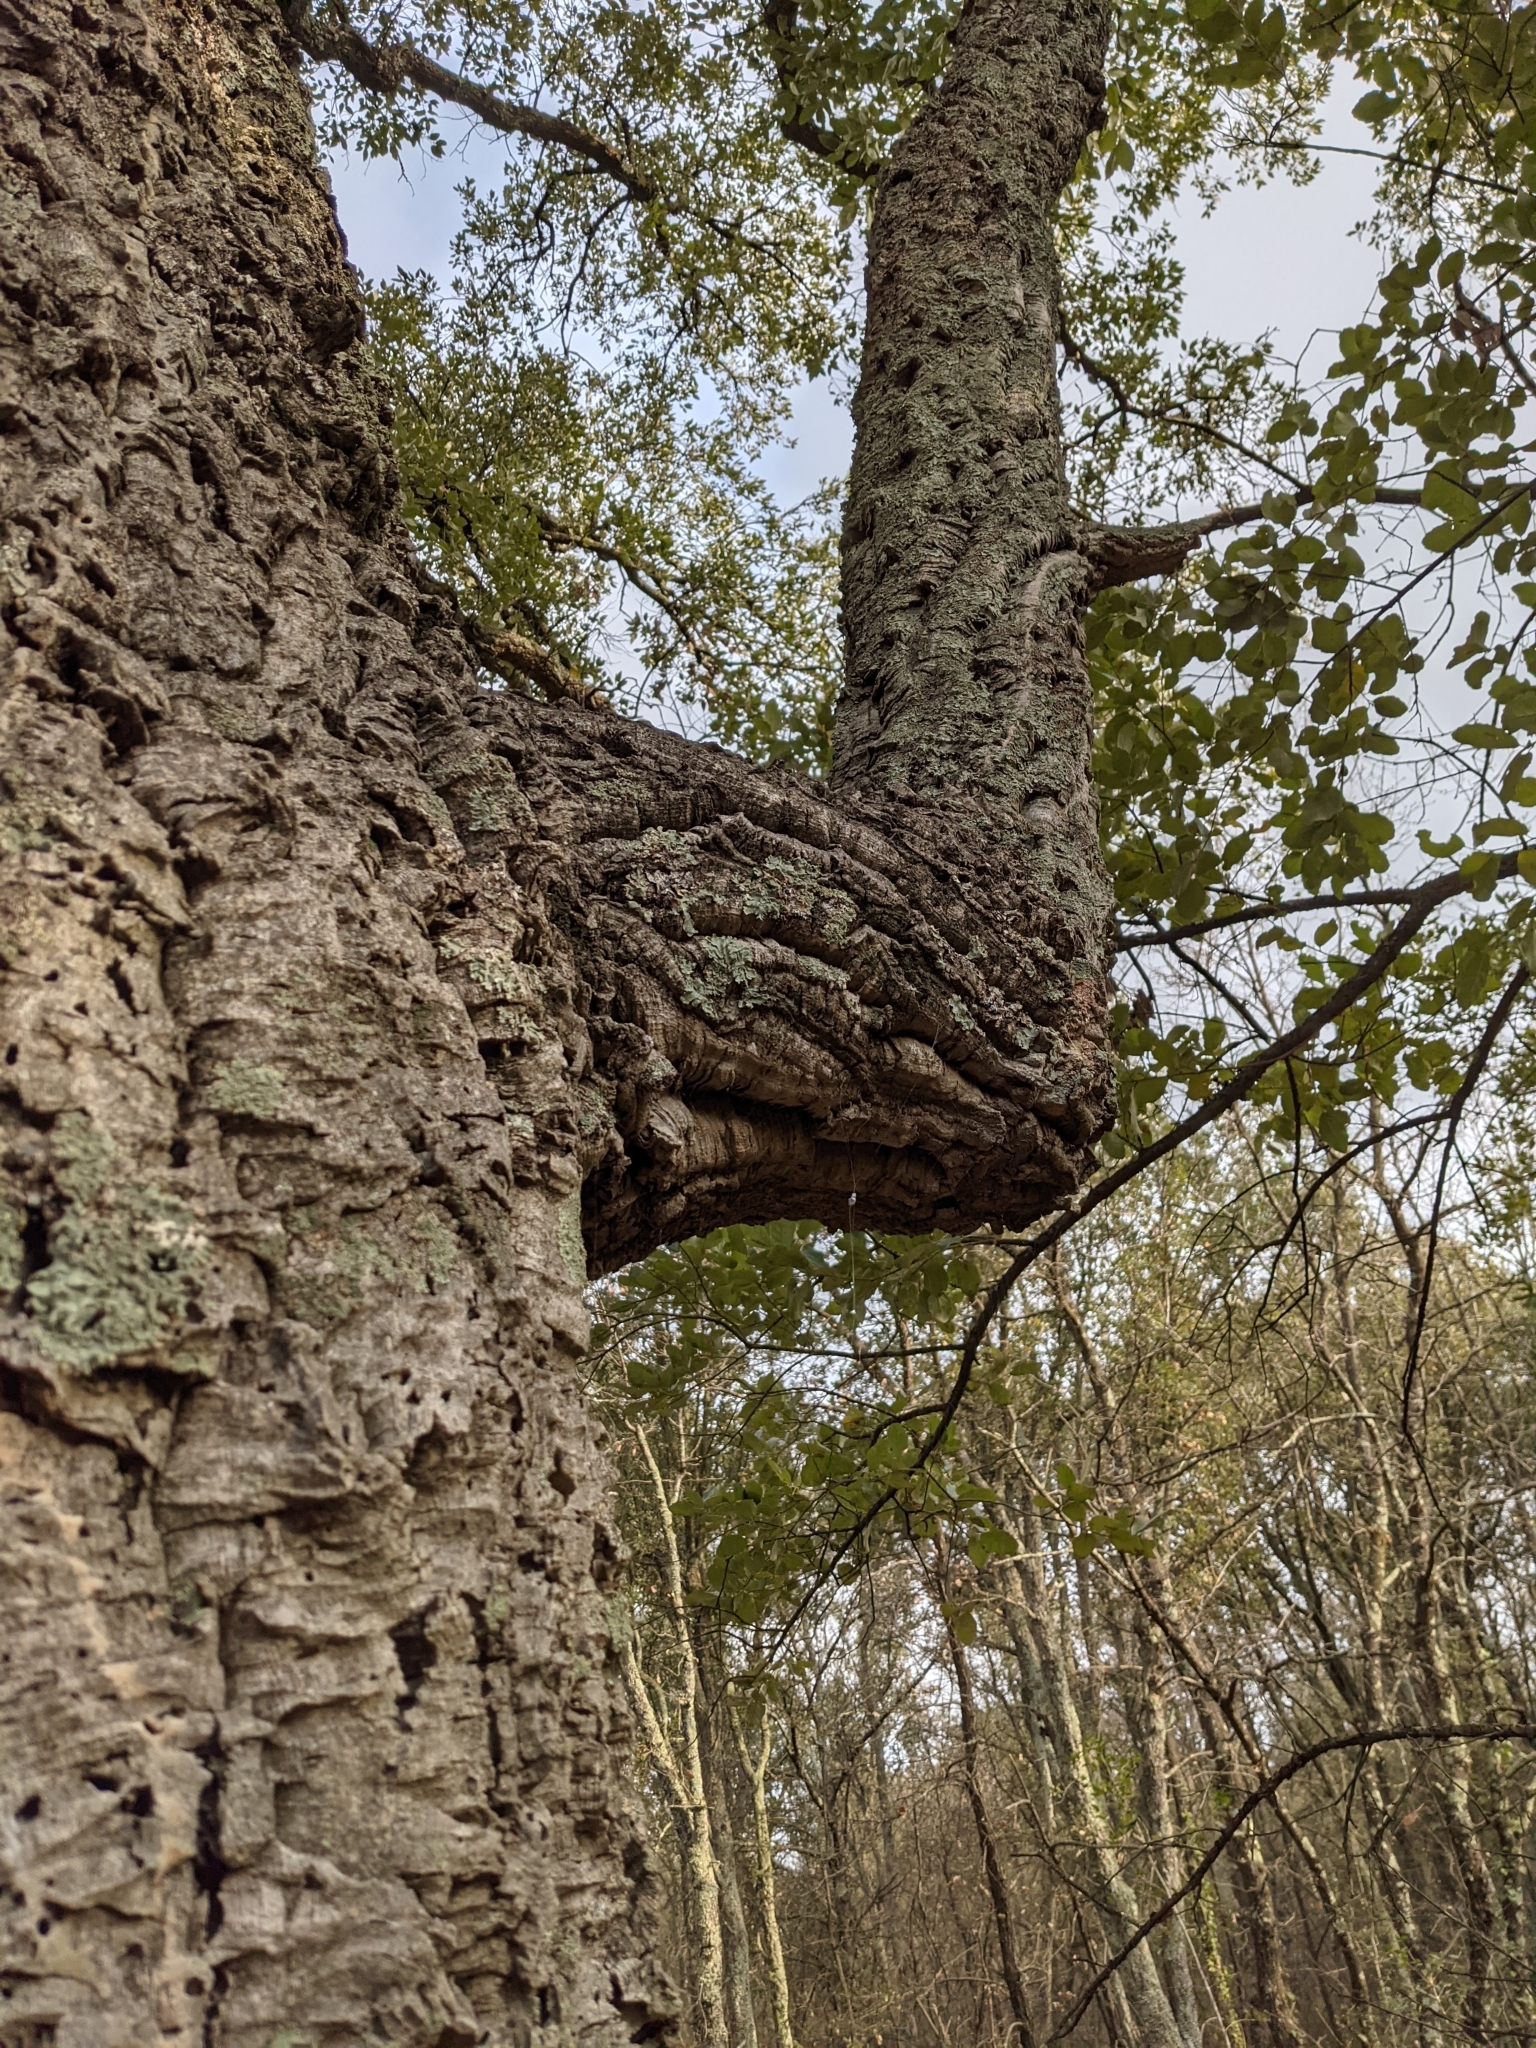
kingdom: Plantae
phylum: Tracheophyta
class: Magnoliopsida
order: Fagales
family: Fagaceae
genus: Quercus
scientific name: Quercus suber
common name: Cork oak
